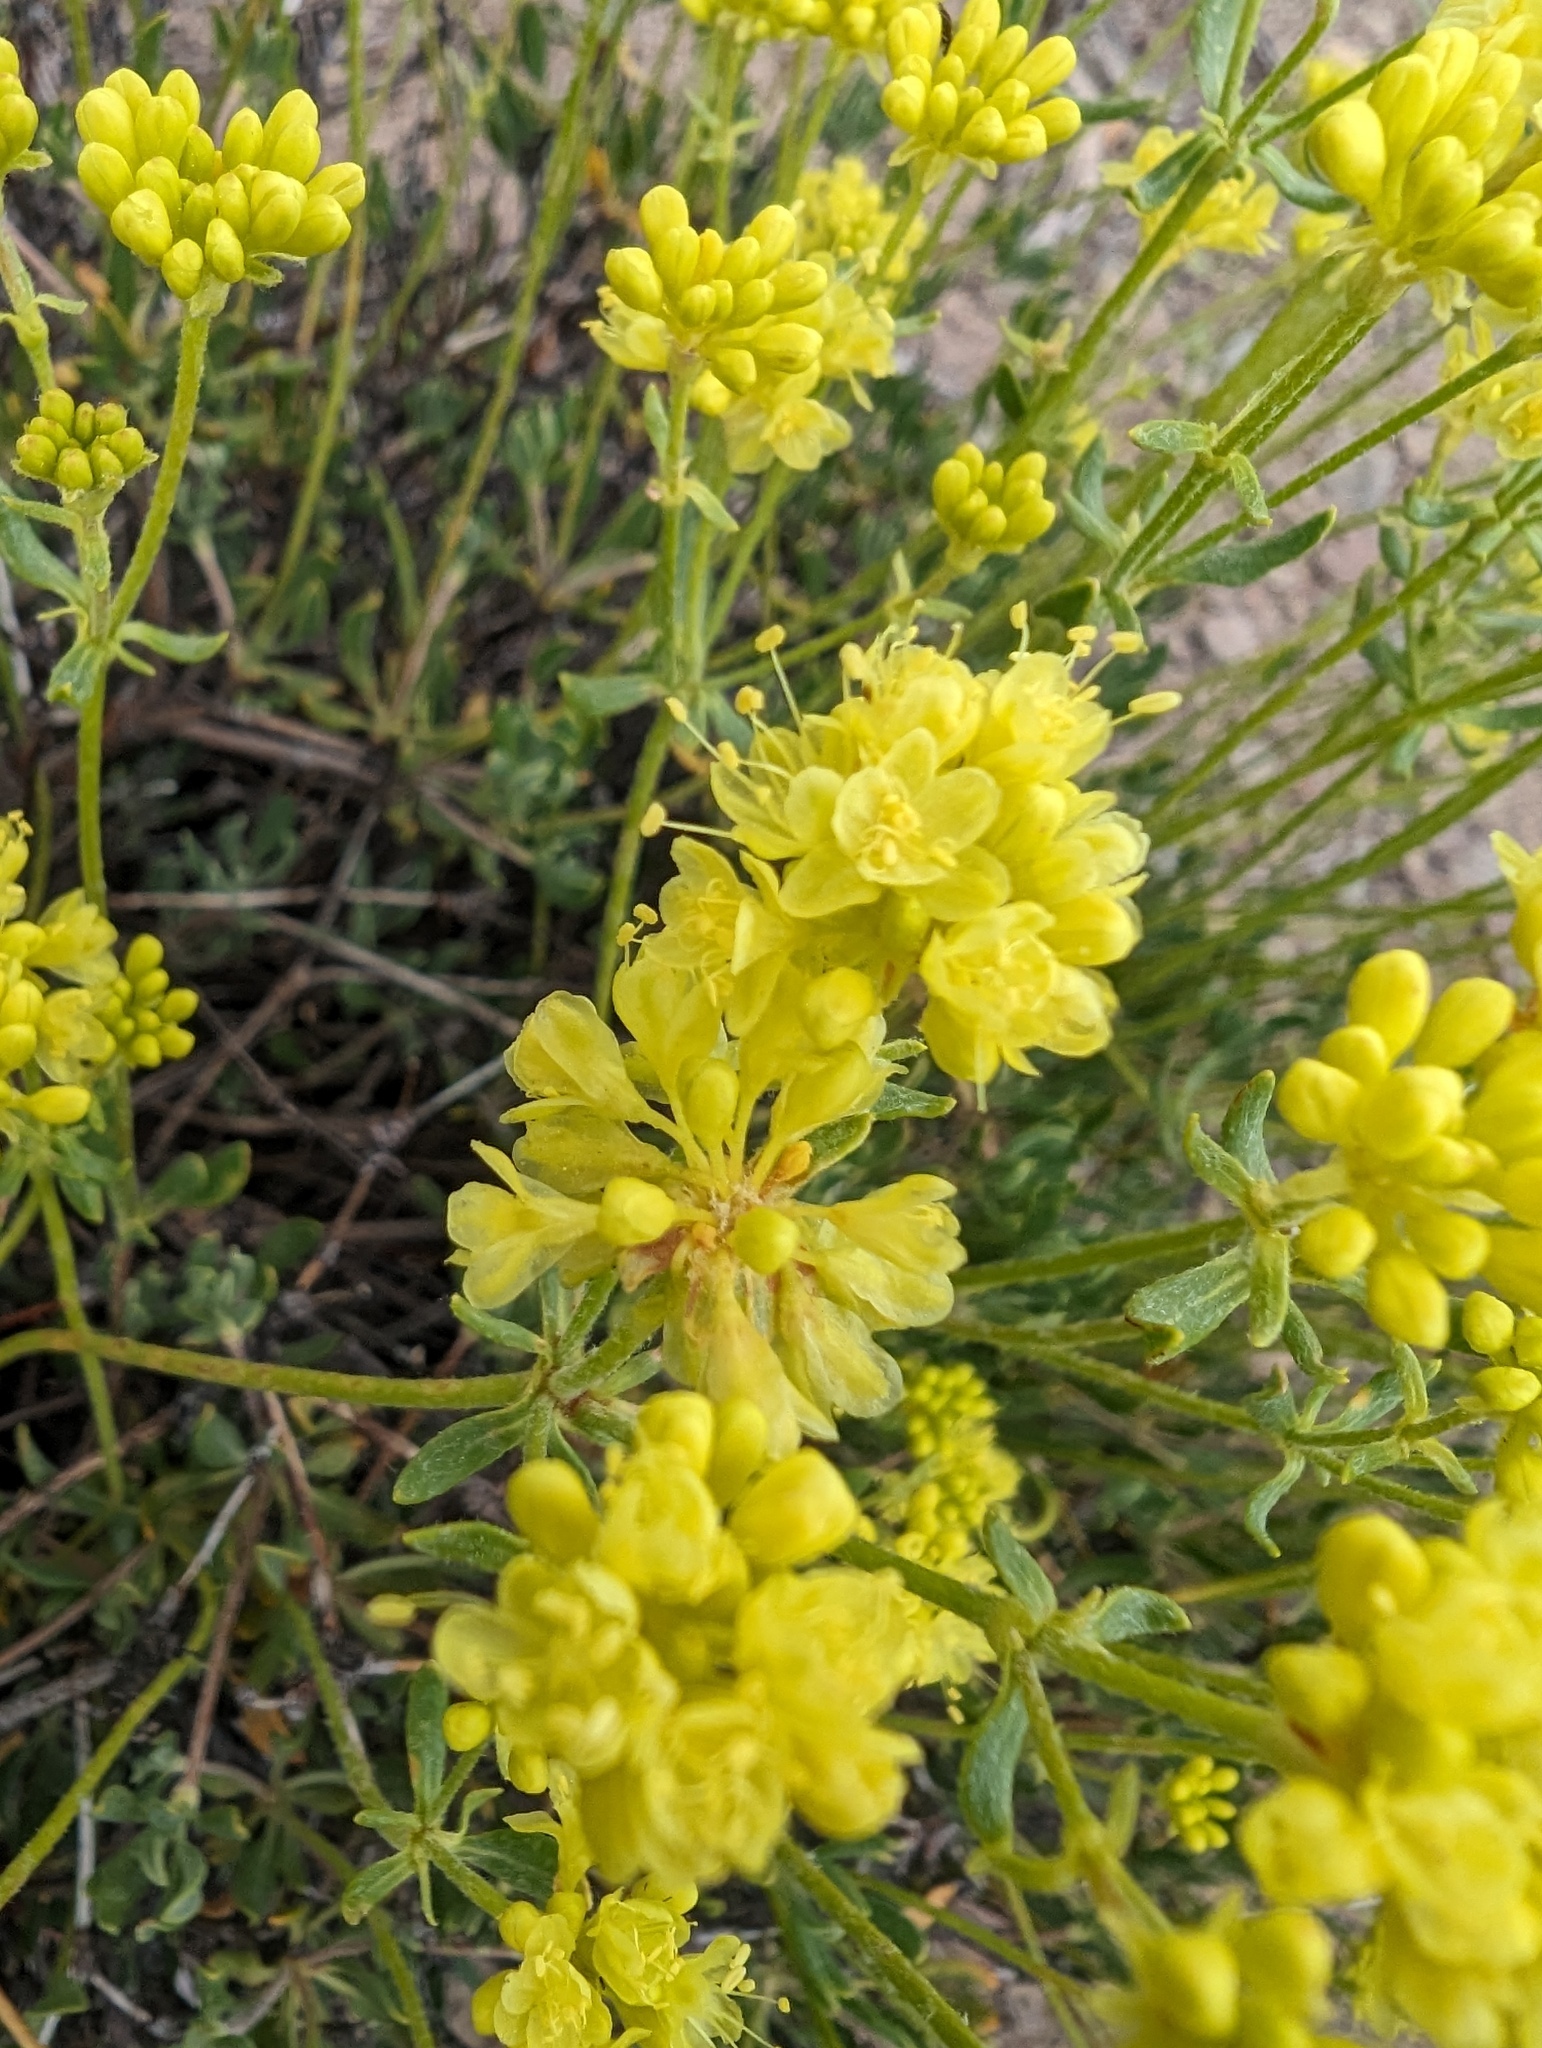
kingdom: Plantae
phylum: Tracheophyta
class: Magnoliopsida
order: Caryophyllales
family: Polygonaceae
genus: Eriogonum
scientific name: Eriogonum umbellatum
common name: Sulfur-buckwheat
